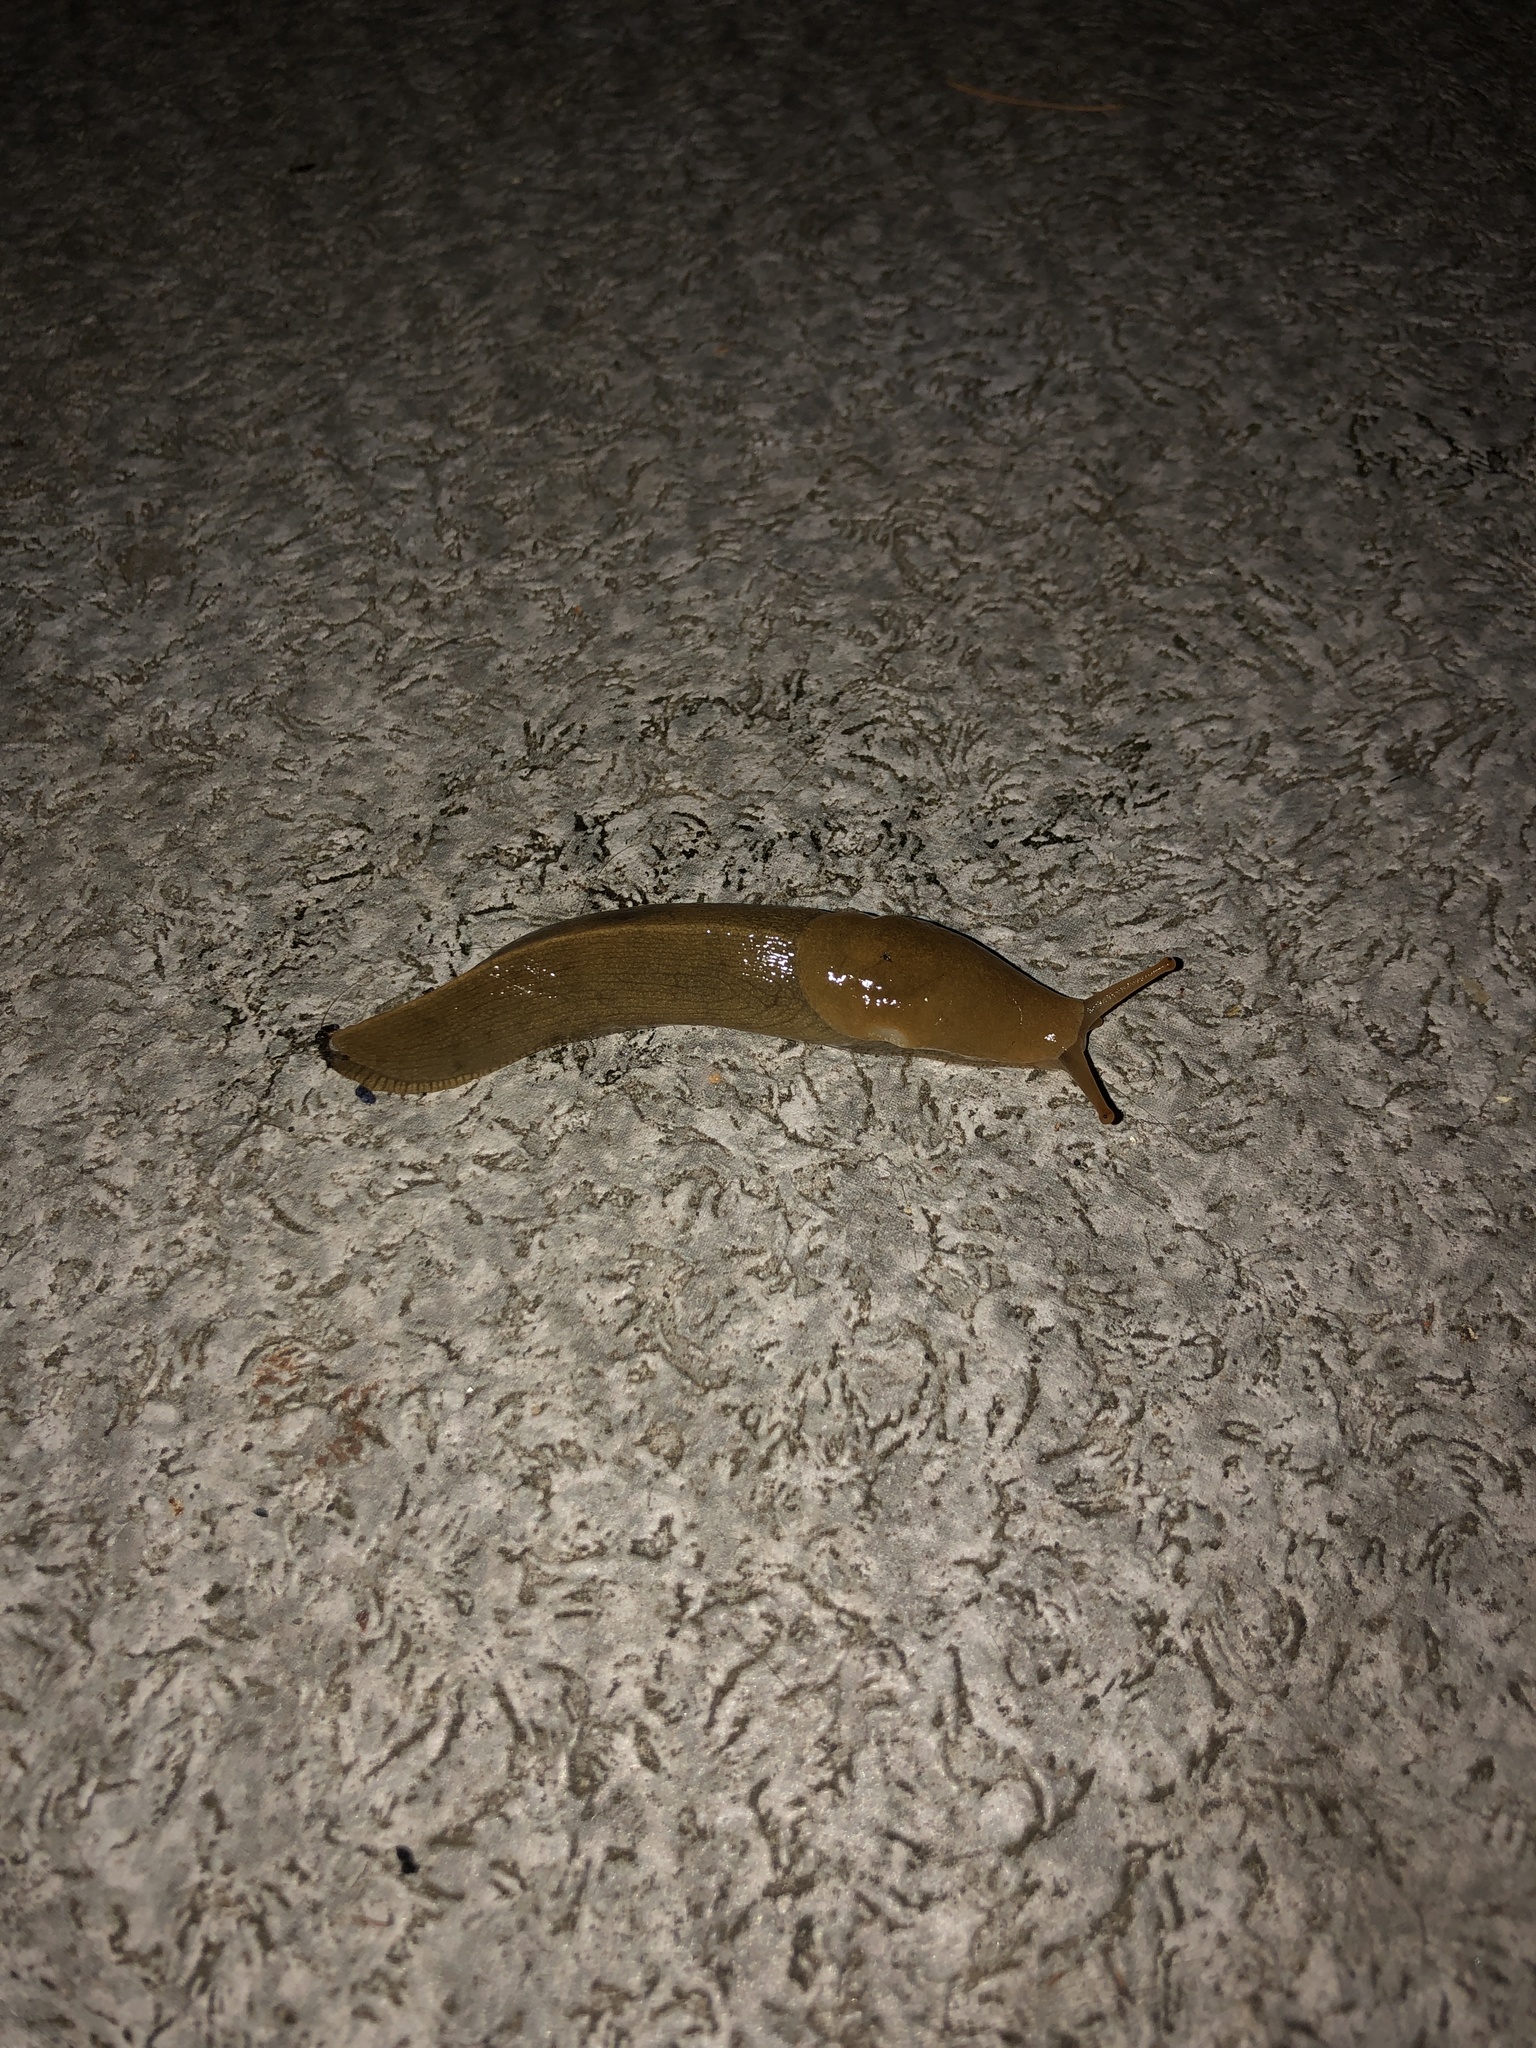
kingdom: Animalia
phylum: Mollusca
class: Gastropoda
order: Stylommatophora
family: Ariolimacidae
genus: Ariolimax
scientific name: Ariolimax columbianus
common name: Pacific banana slug
